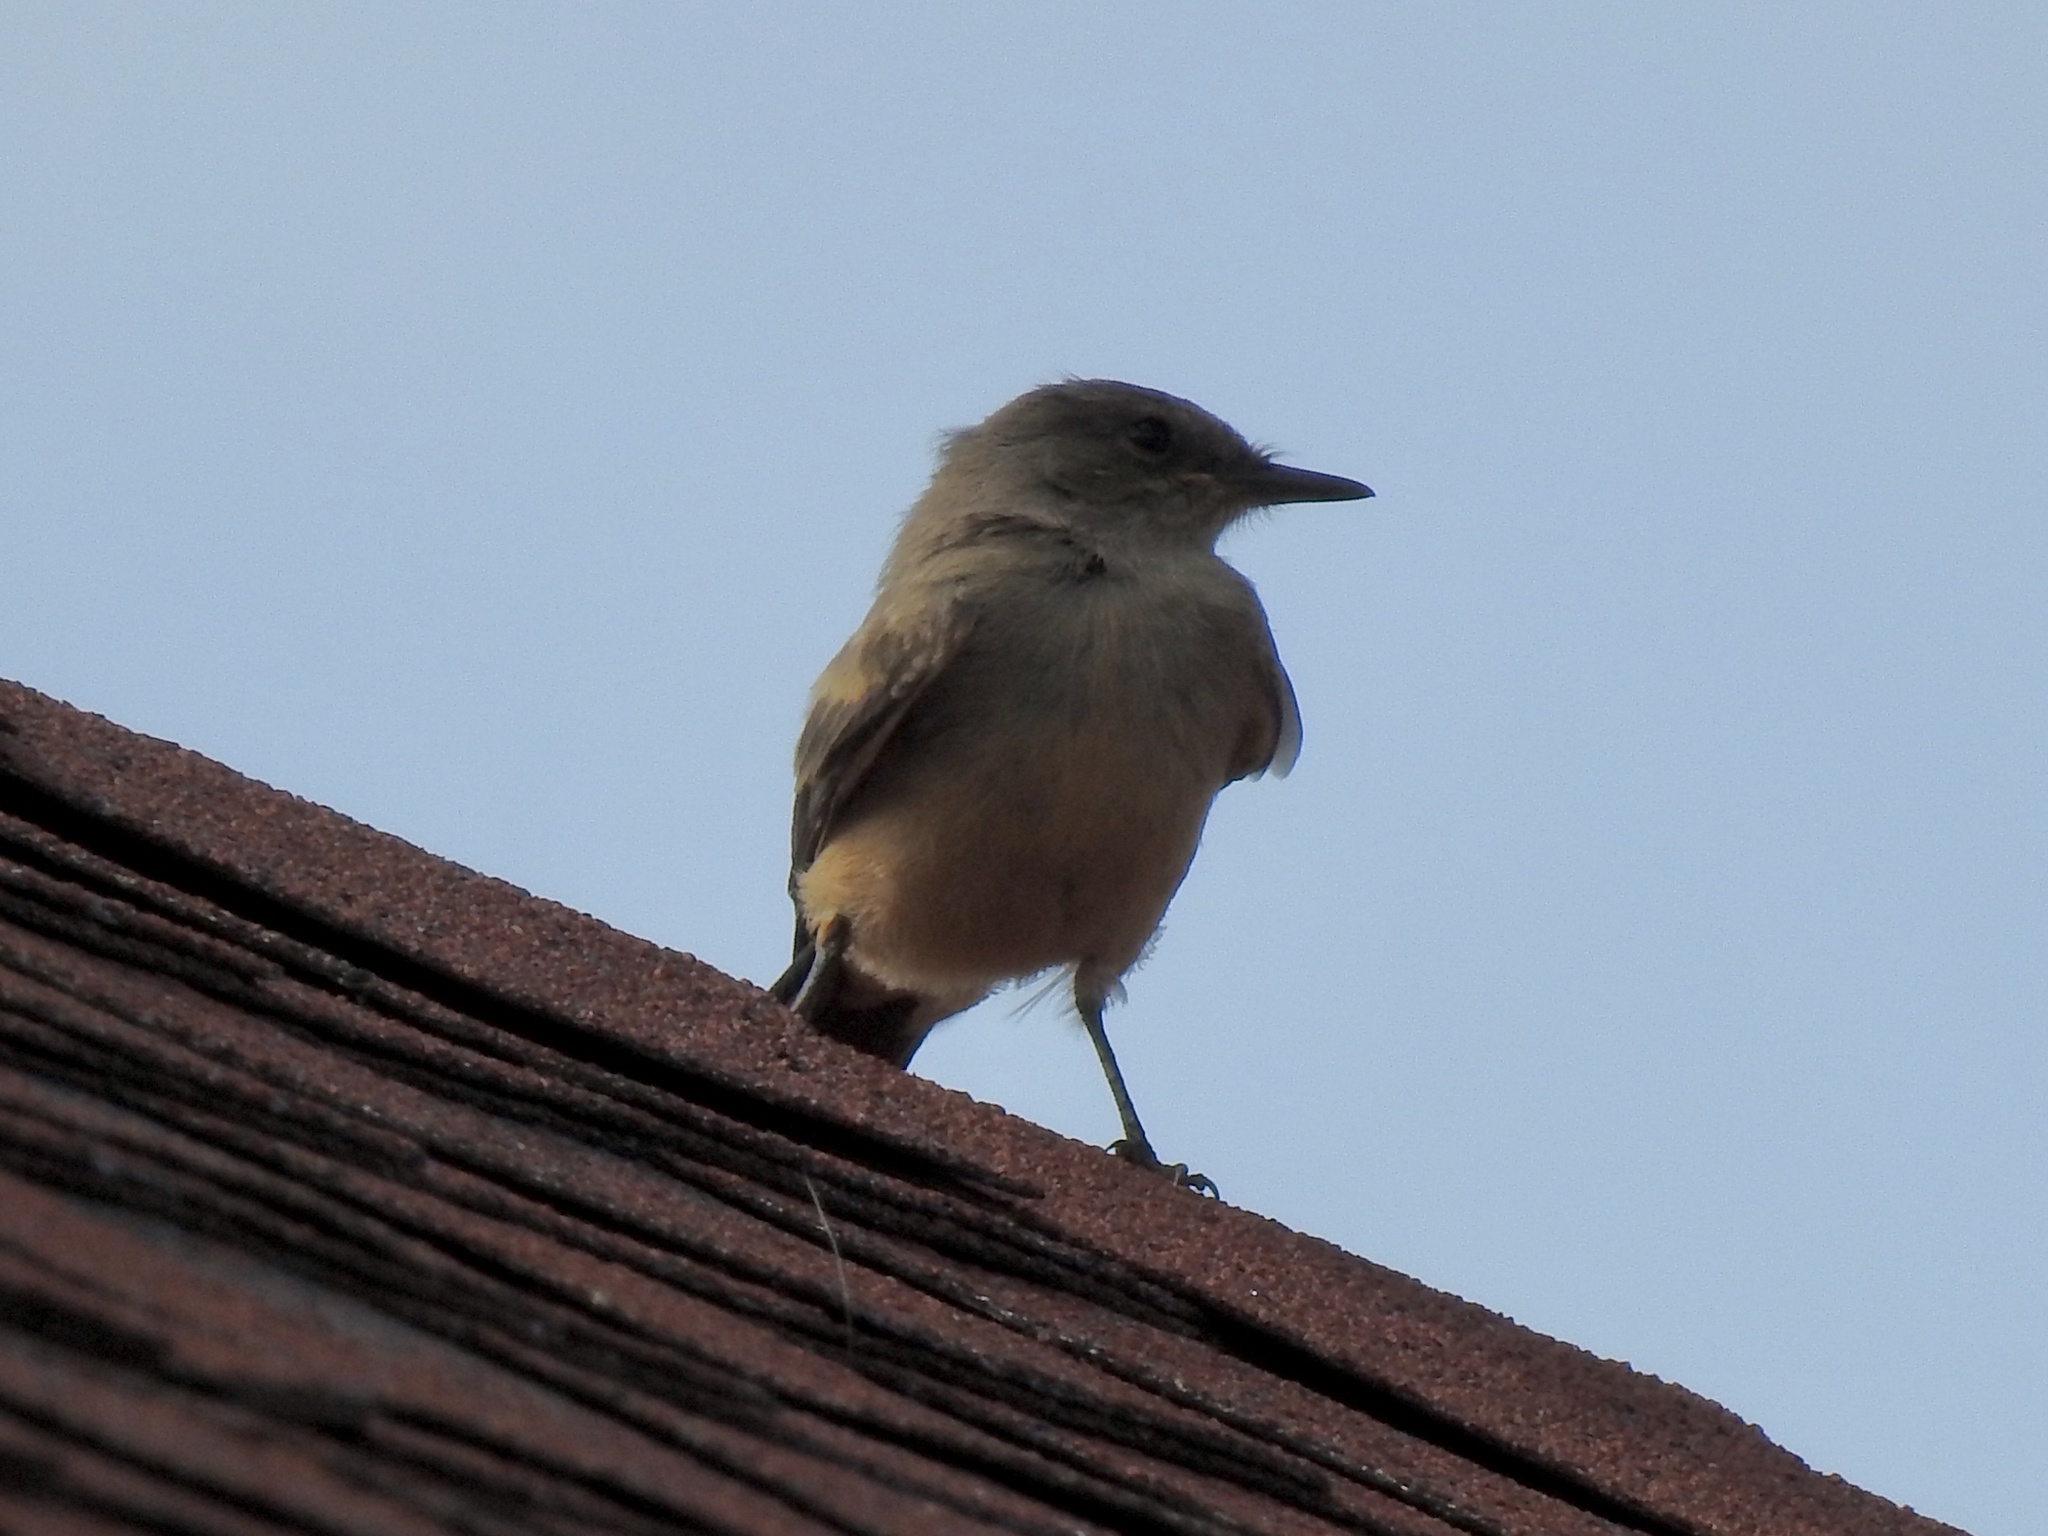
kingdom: Animalia
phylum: Chordata
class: Aves
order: Passeriformes
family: Tyrannidae
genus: Sayornis
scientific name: Sayornis saya
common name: Say's phoebe
